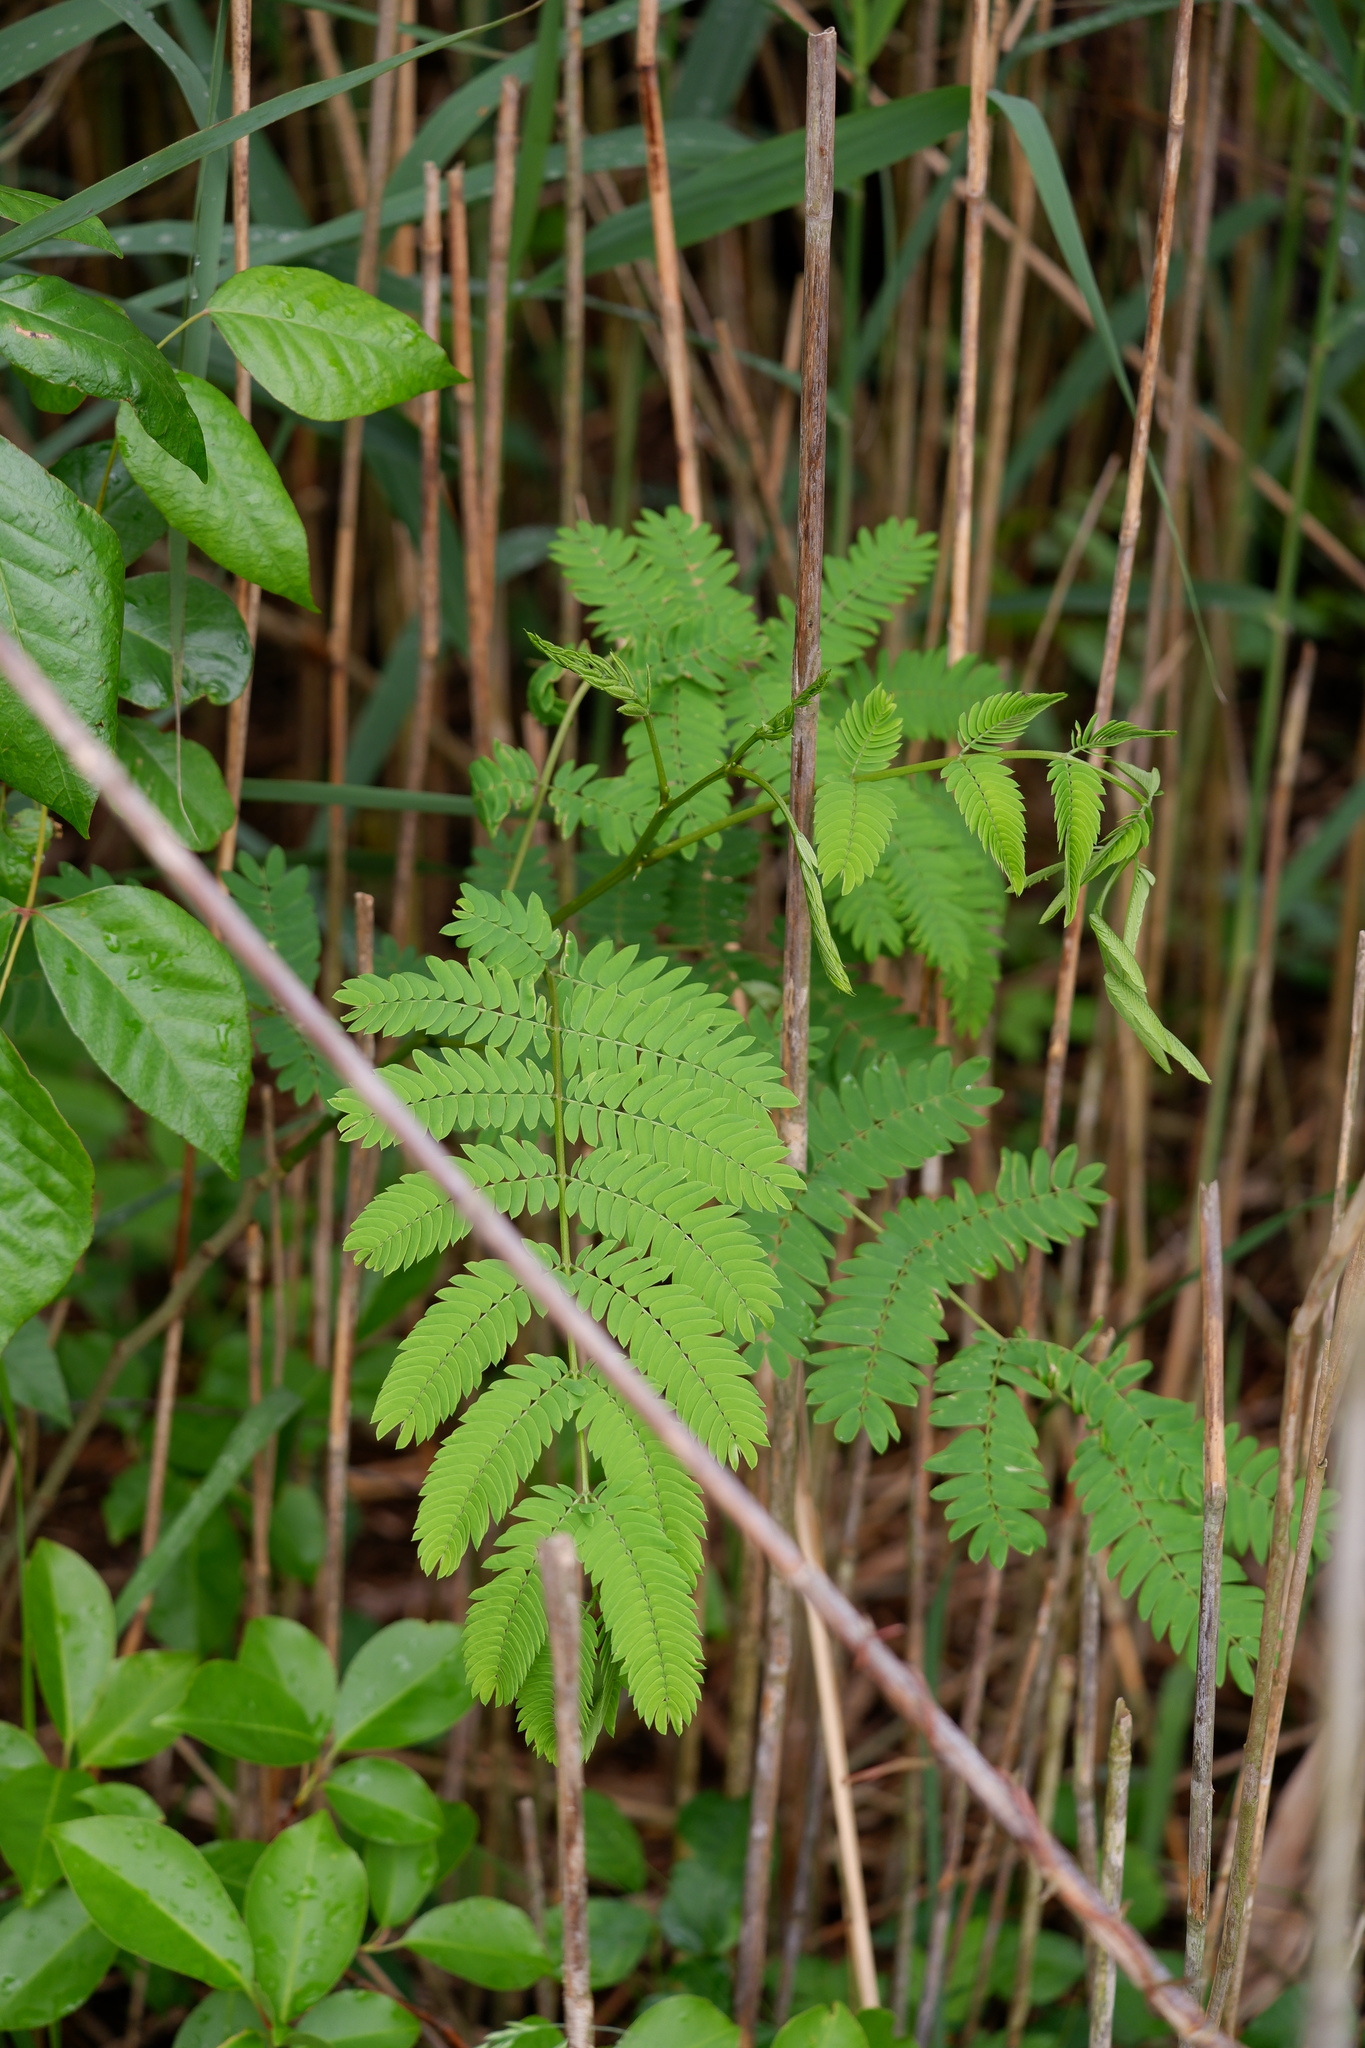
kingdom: Plantae
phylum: Tracheophyta
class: Magnoliopsida
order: Fabales
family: Fabaceae
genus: Albizia
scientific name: Albizia julibrissin
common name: Silktree
